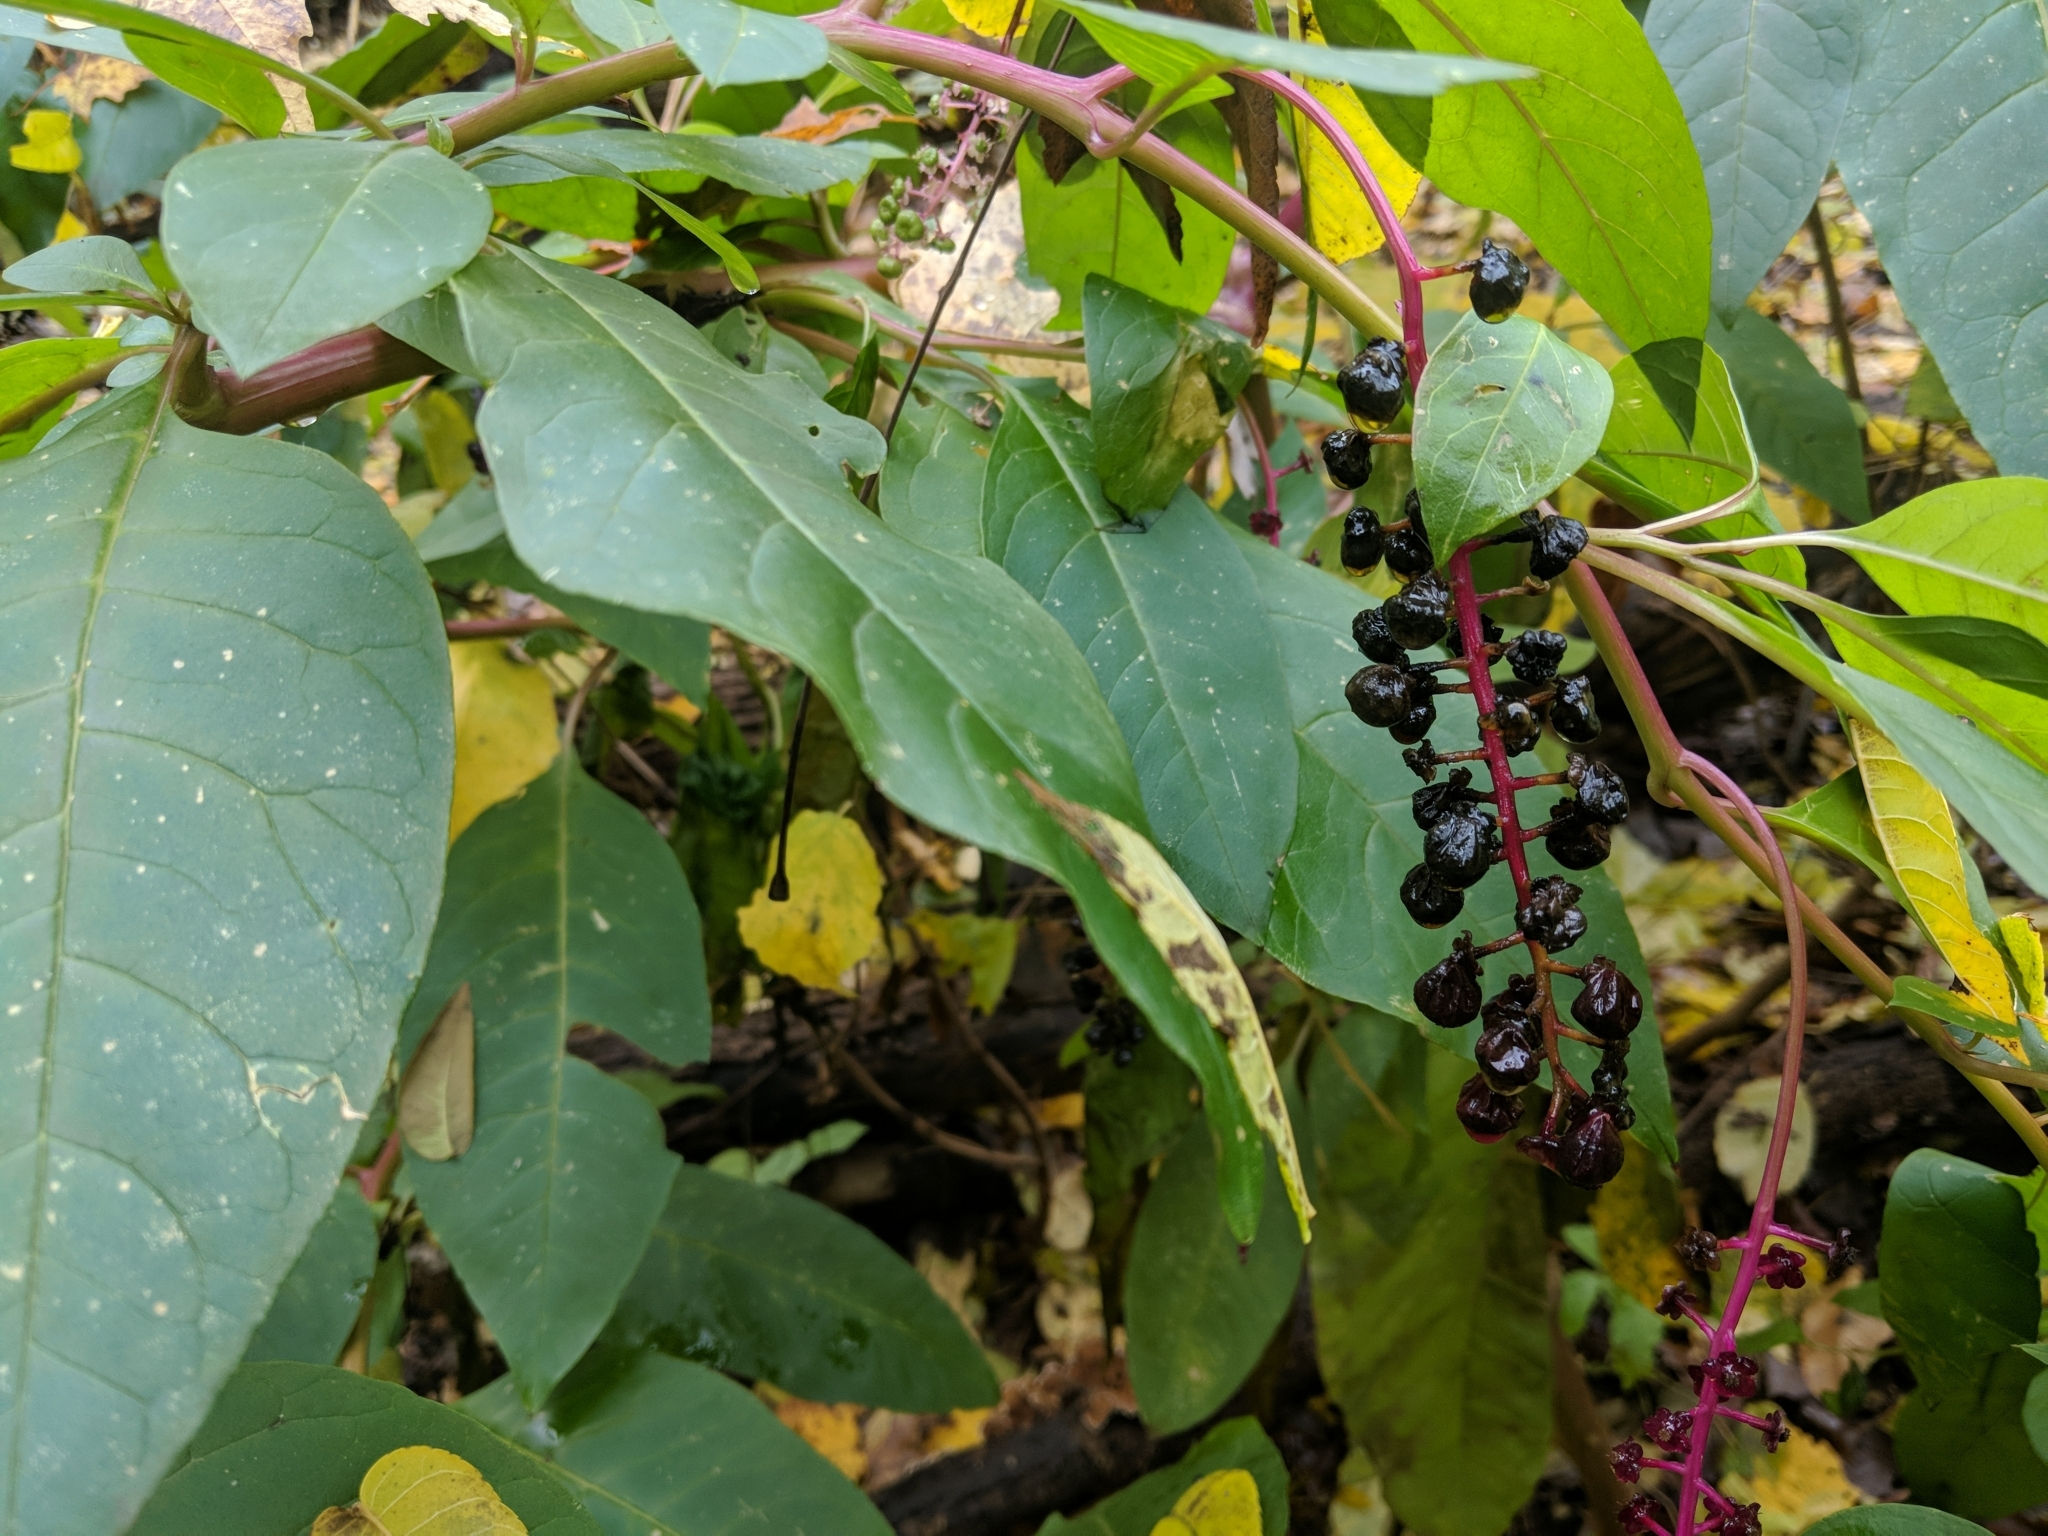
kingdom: Plantae
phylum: Tracheophyta
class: Magnoliopsida
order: Caryophyllales
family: Phytolaccaceae
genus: Phytolacca
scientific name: Phytolacca americana
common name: American pokeweed
